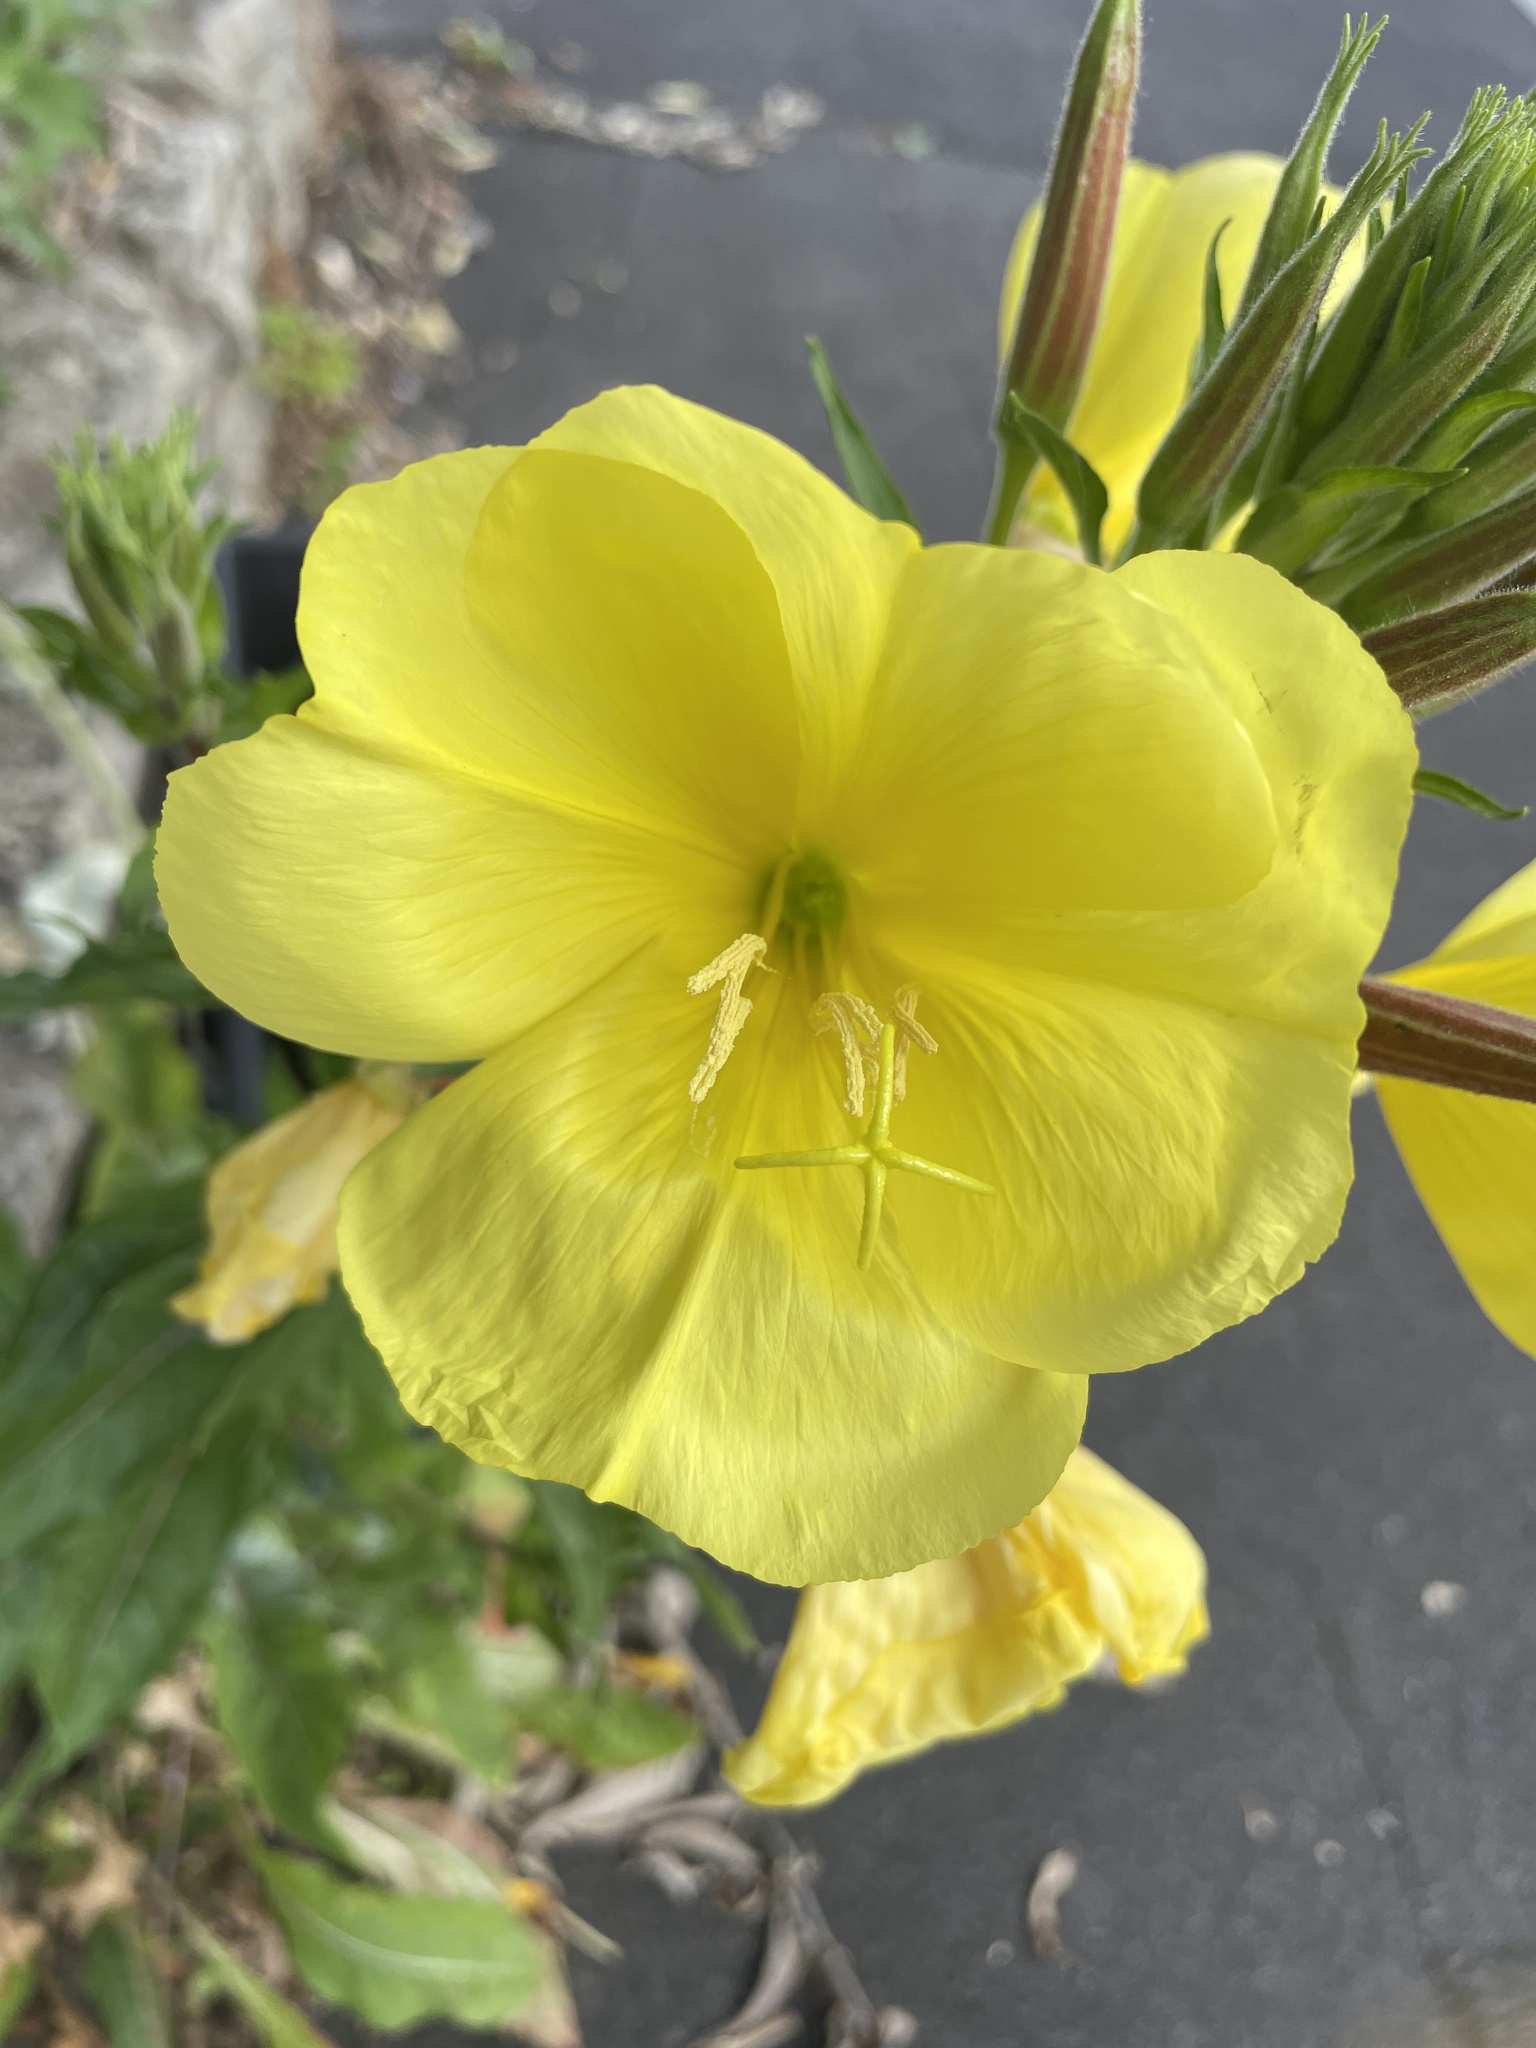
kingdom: Plantae
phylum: Tracheophyta
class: Magnoliopsida
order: Myrtales
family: Onagraceae
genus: Oenothera
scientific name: Oenothera glazioviana
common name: Large-flowered evening-primrose
